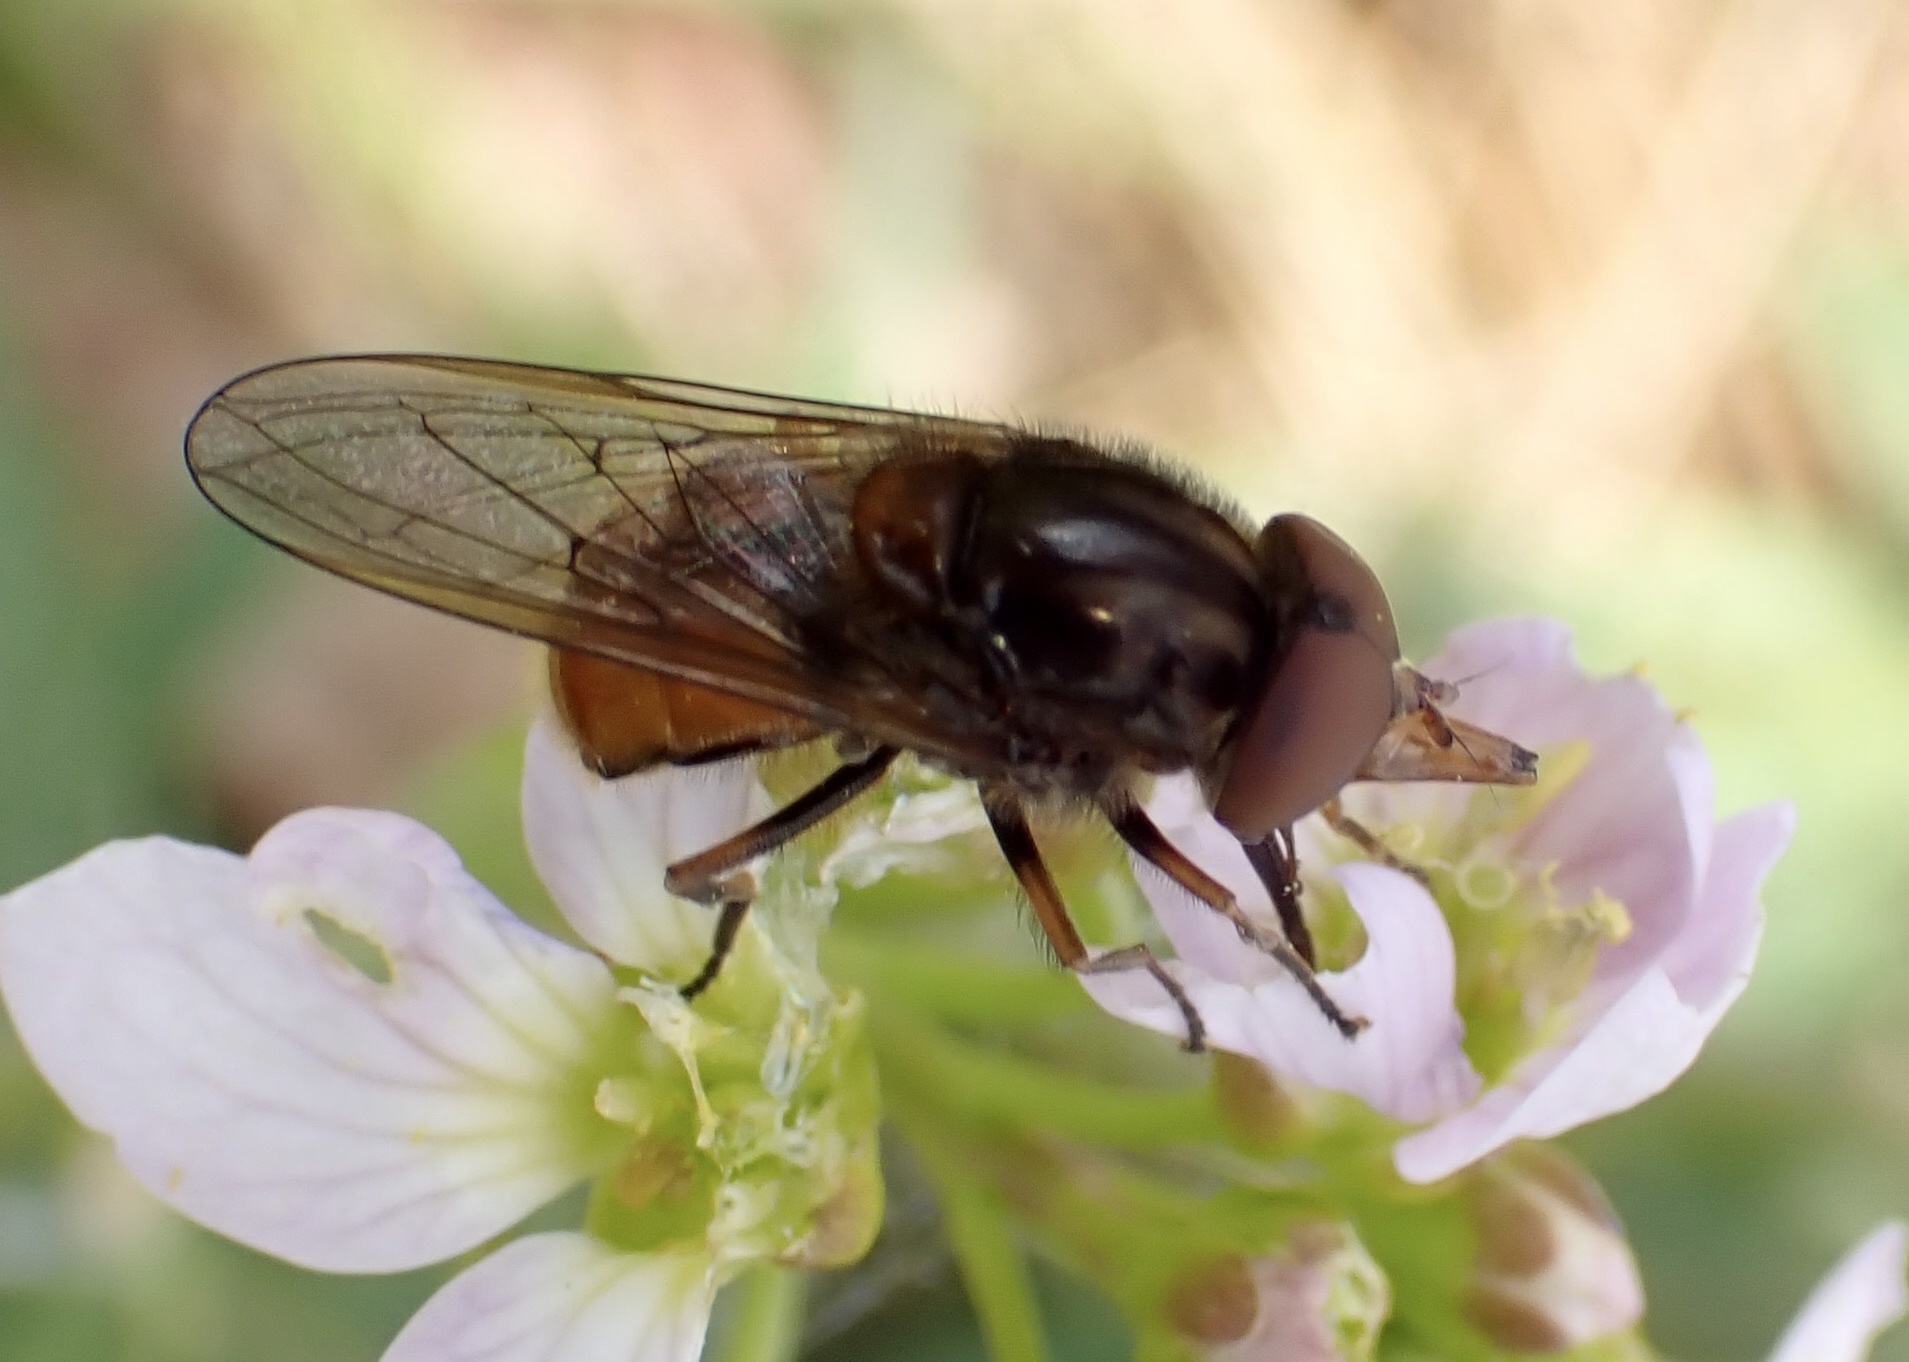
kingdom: Animalia
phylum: Arthropoda
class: Insecta
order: Diptera
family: Syrphidae
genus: Rhingia
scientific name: Rhingia campestris
